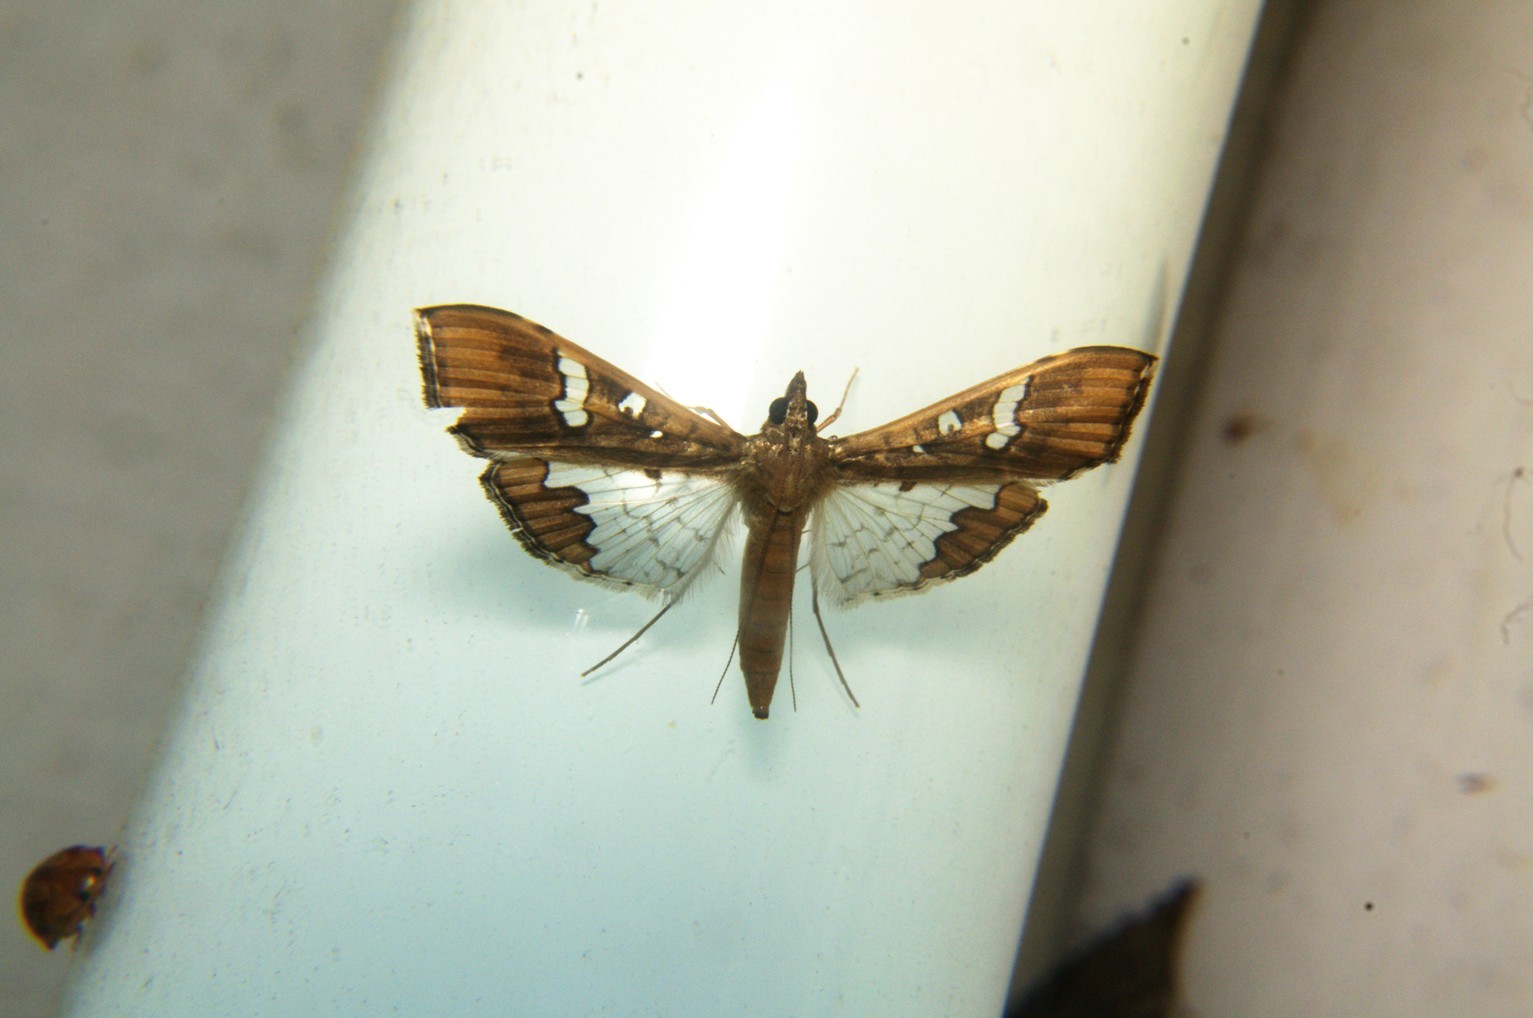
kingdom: Animalia
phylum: Arthropoda
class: Insecta
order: Lepidoptera
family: Crambidae
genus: Maruca
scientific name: Maruca vitrata
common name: Maruca pod borer
